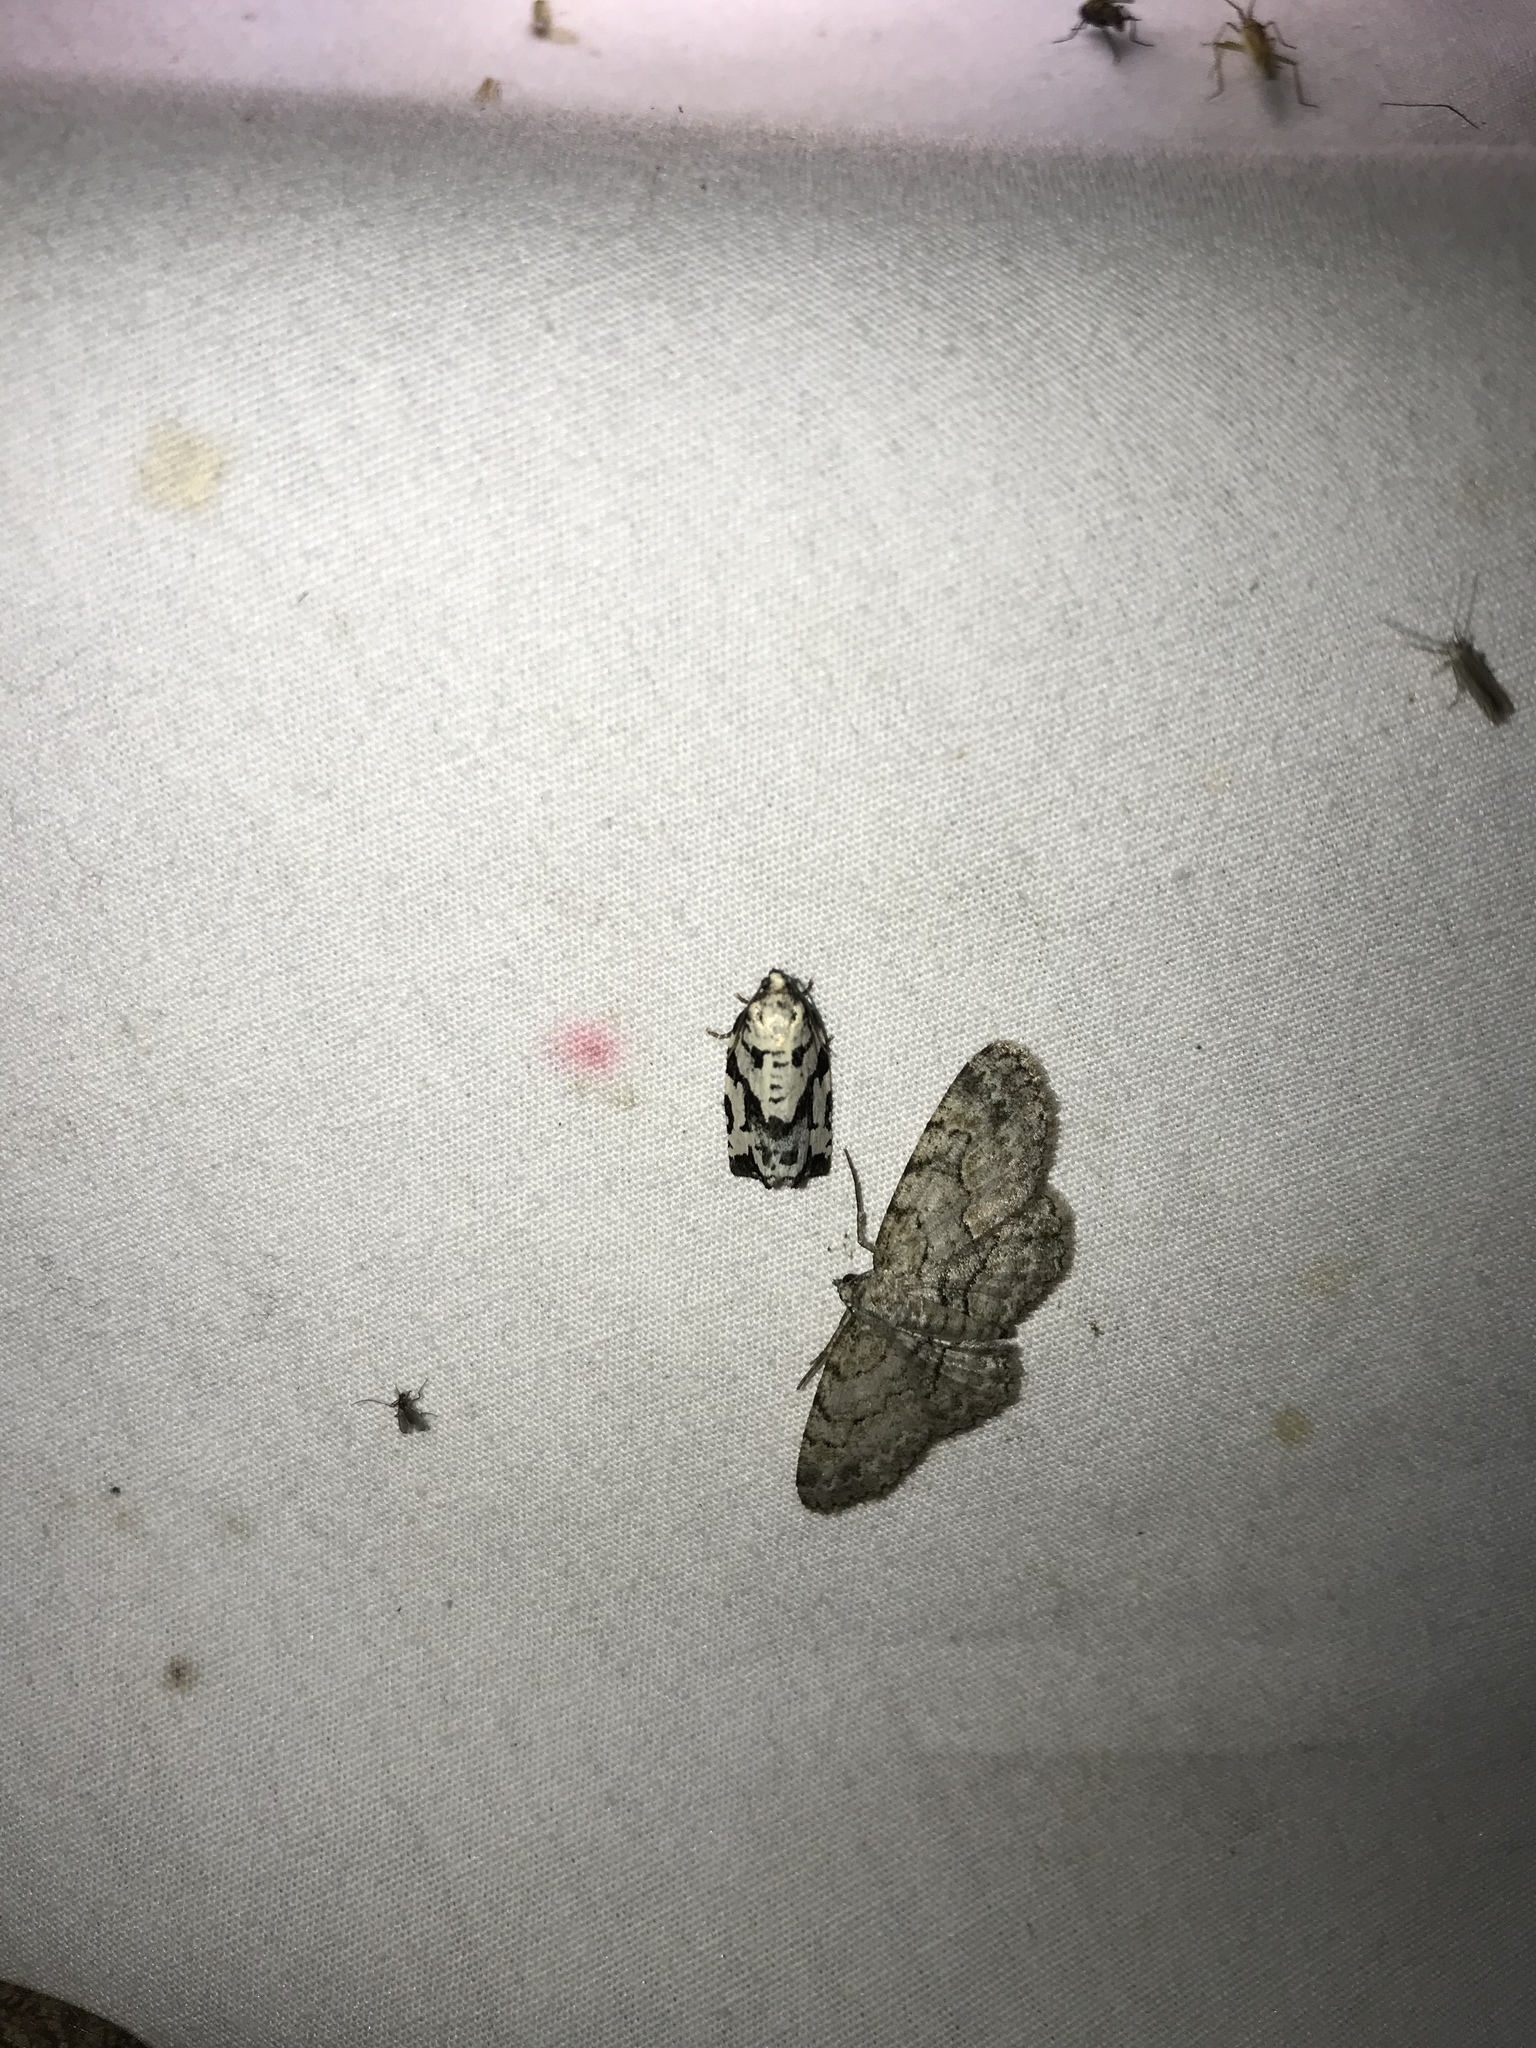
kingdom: Animalia
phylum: Arthropoda
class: Insecta
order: Lepidoptera
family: Tortricidae
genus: Archips
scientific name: Archips dissitana
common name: Boldly-marked archips moth
